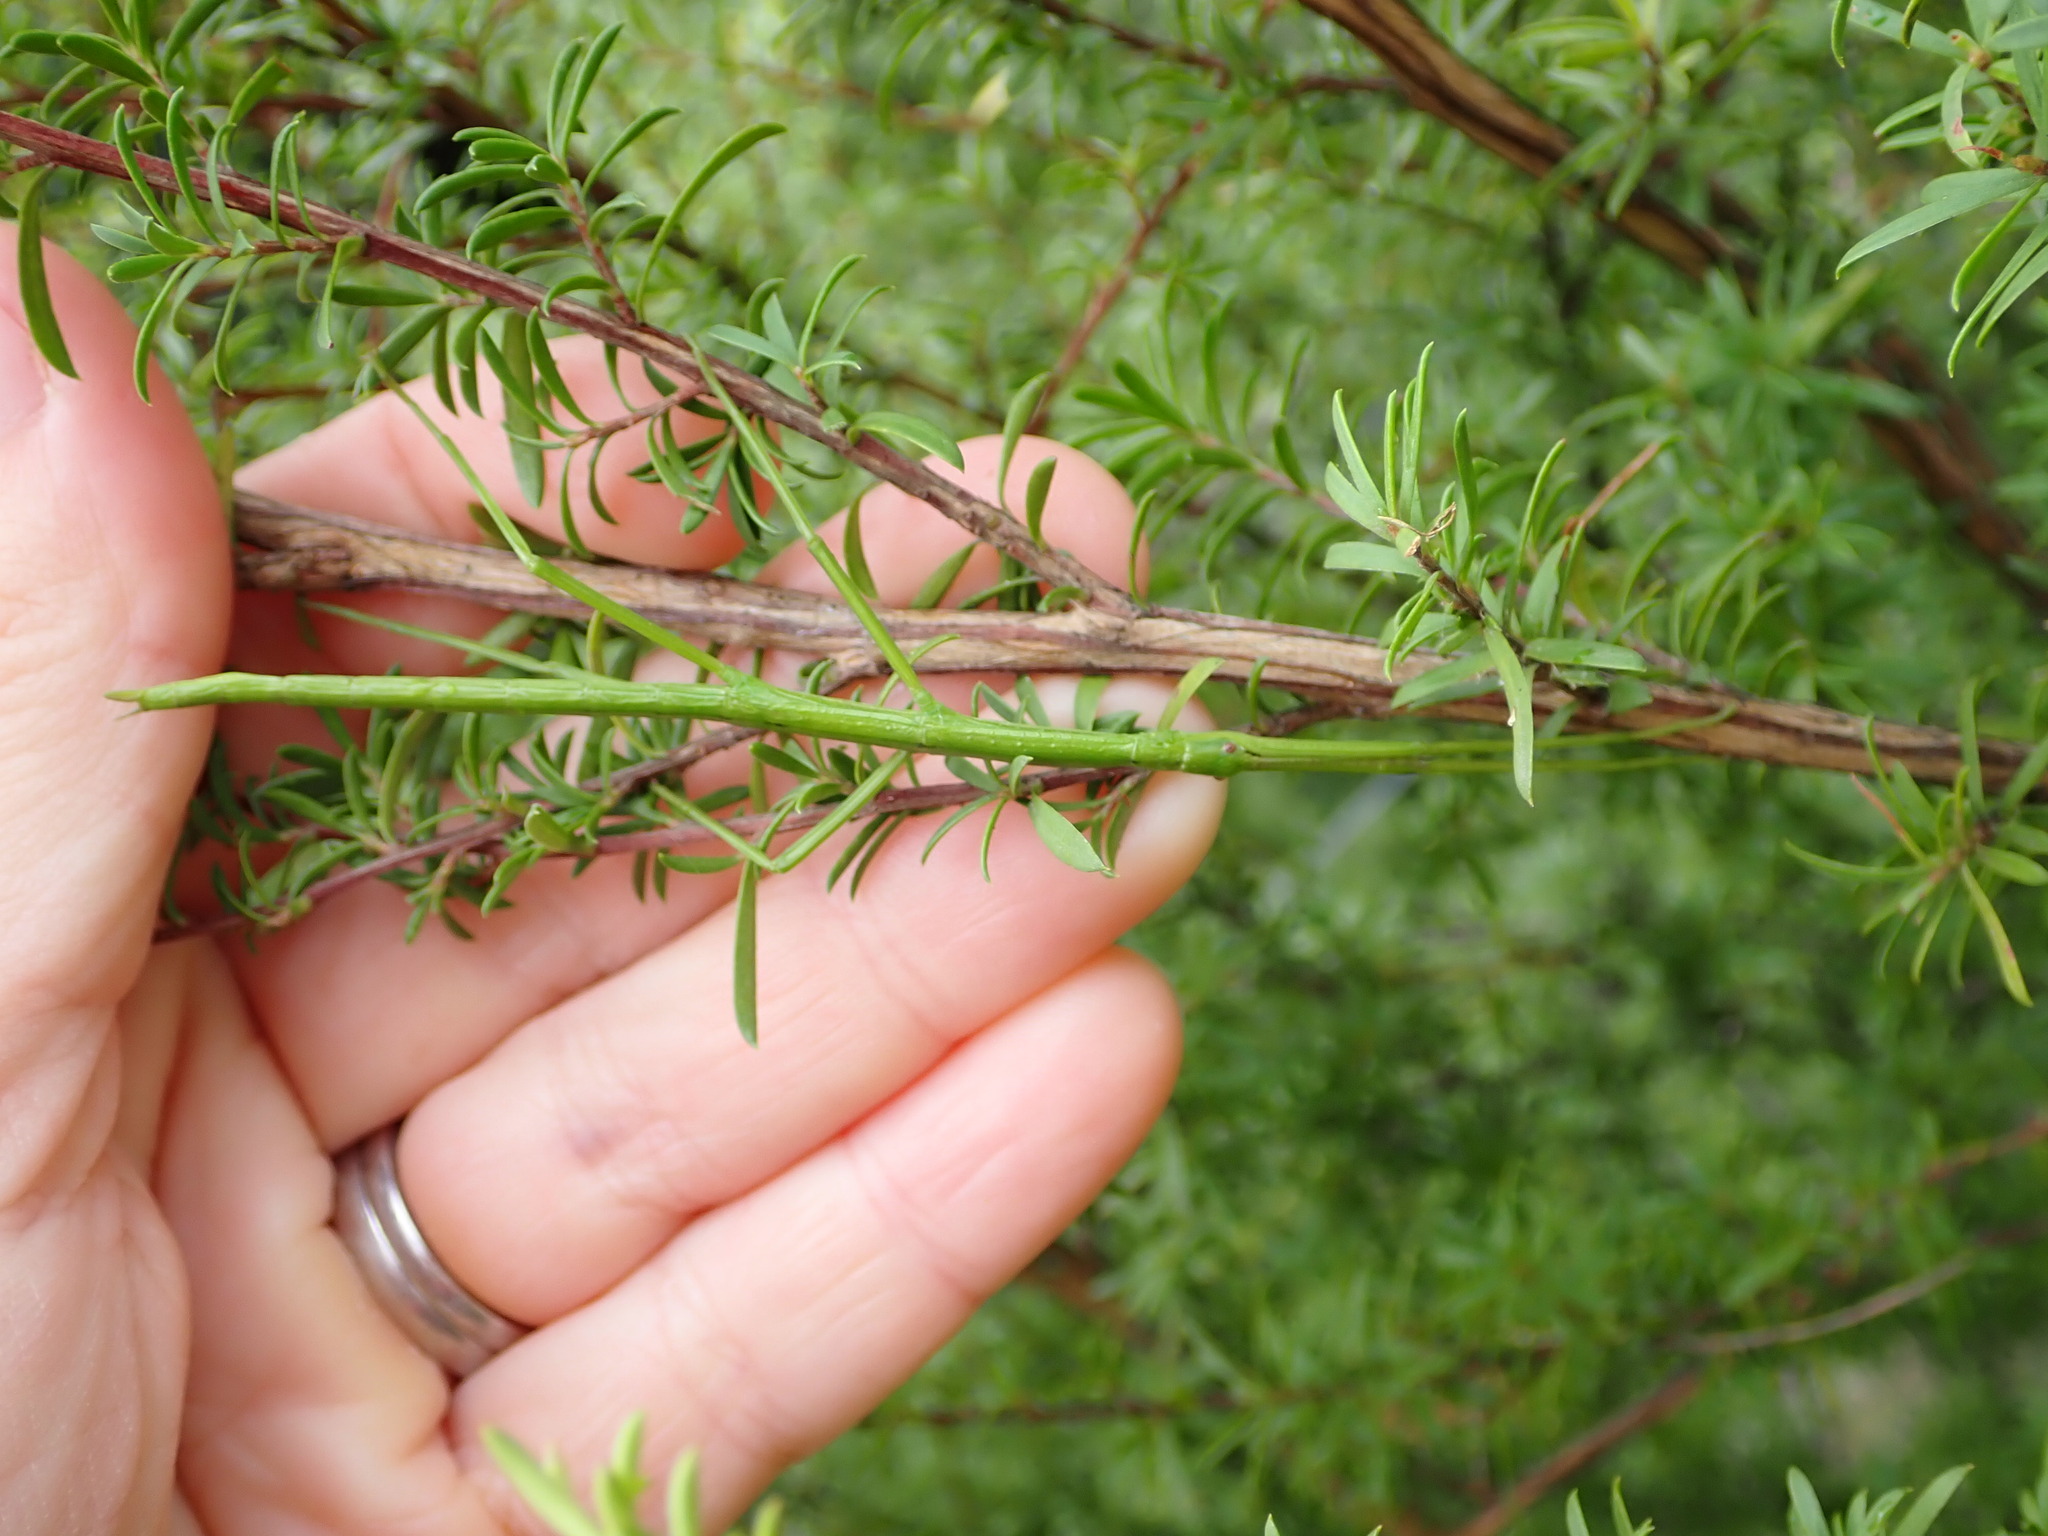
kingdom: Animalia
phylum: Arthropoda
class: Insecta
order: Phasmida
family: Phasmatidae
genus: Clitarchus
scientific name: Clitarchus hookeri
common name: Smooth stick insect
